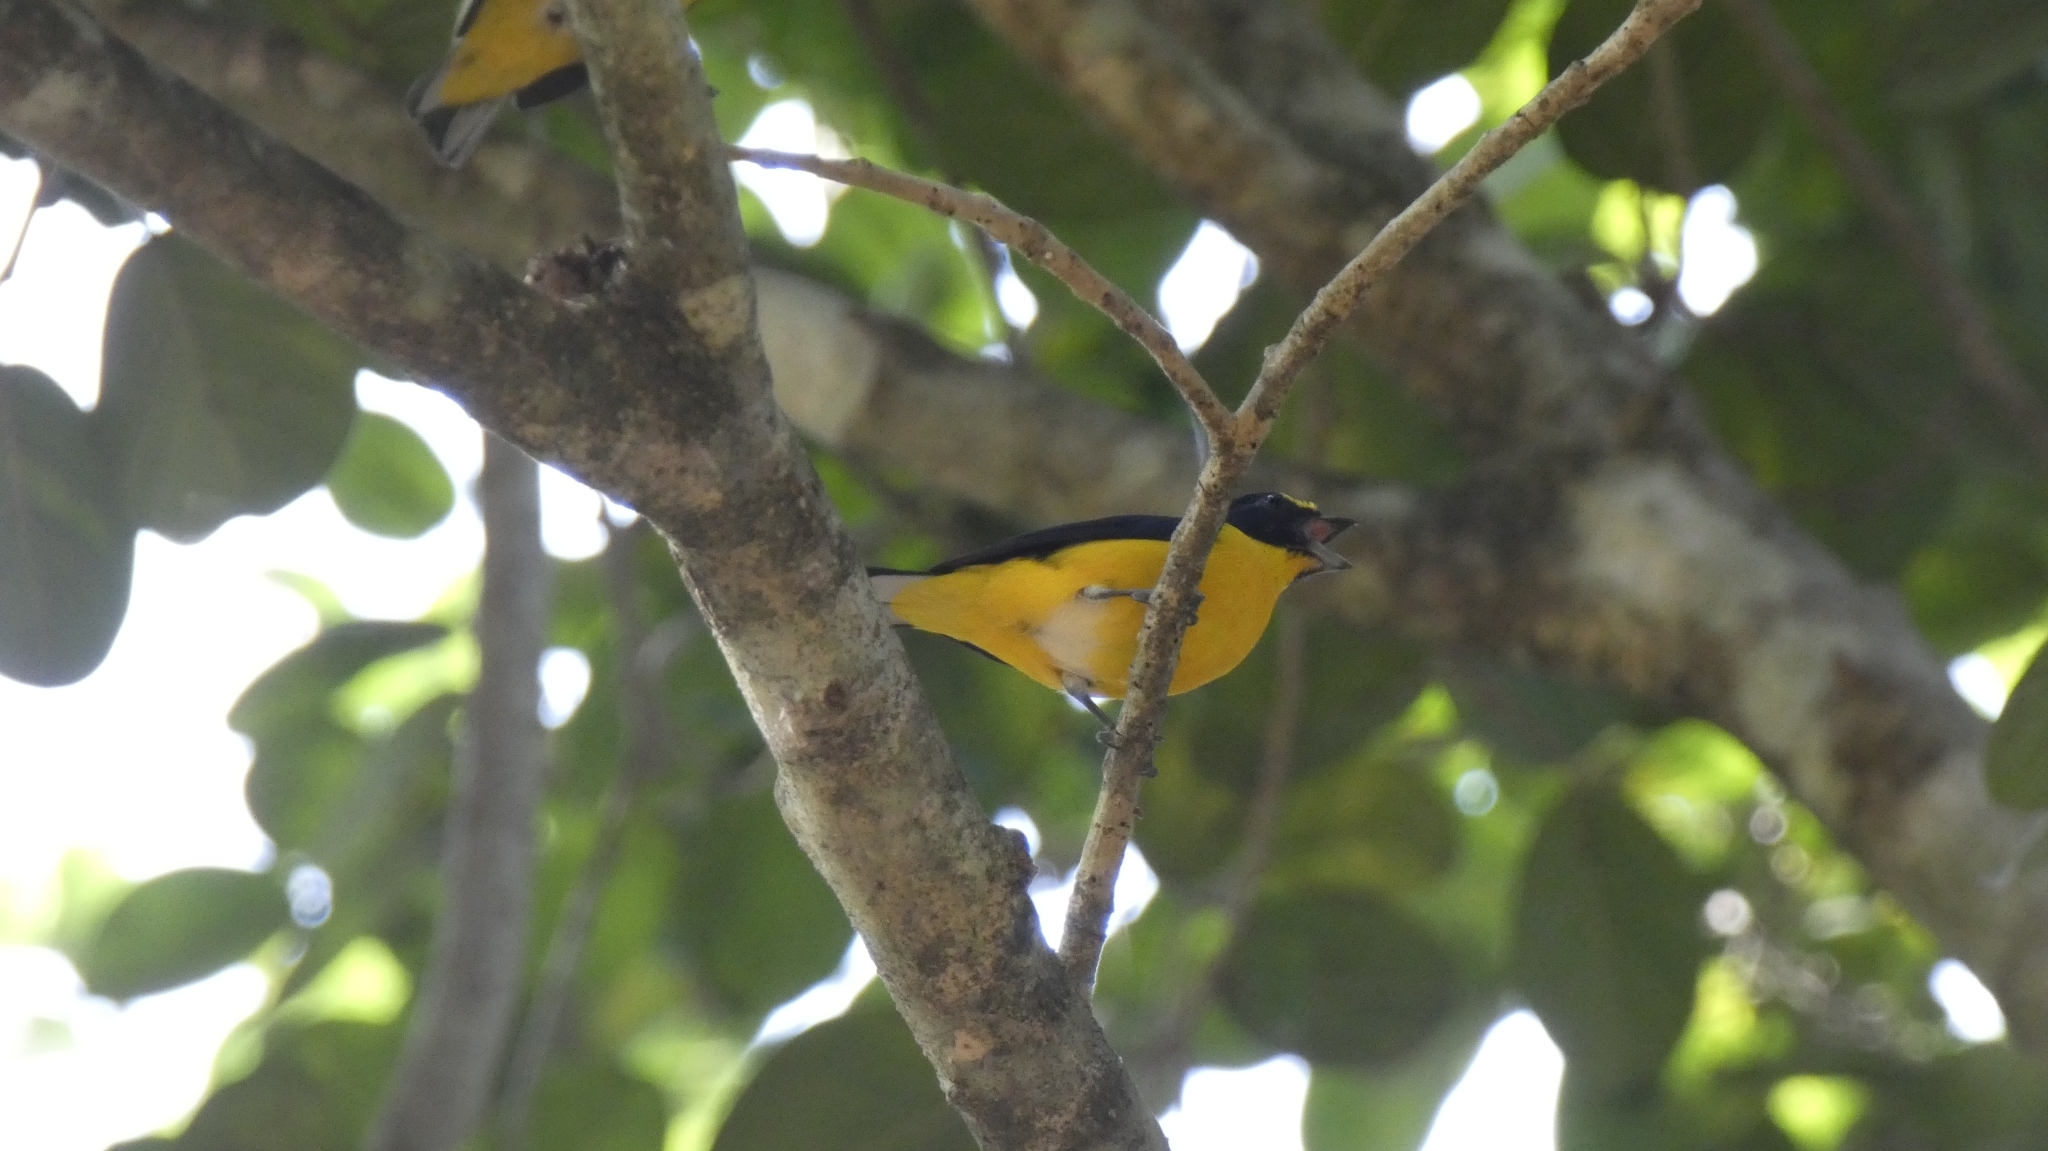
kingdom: Animalia
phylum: Chordata
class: Aves
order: Passeriformes
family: Fringillidae
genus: Euphonia
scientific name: Euphonia hirundinacea
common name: Yellow-throated euphonia
